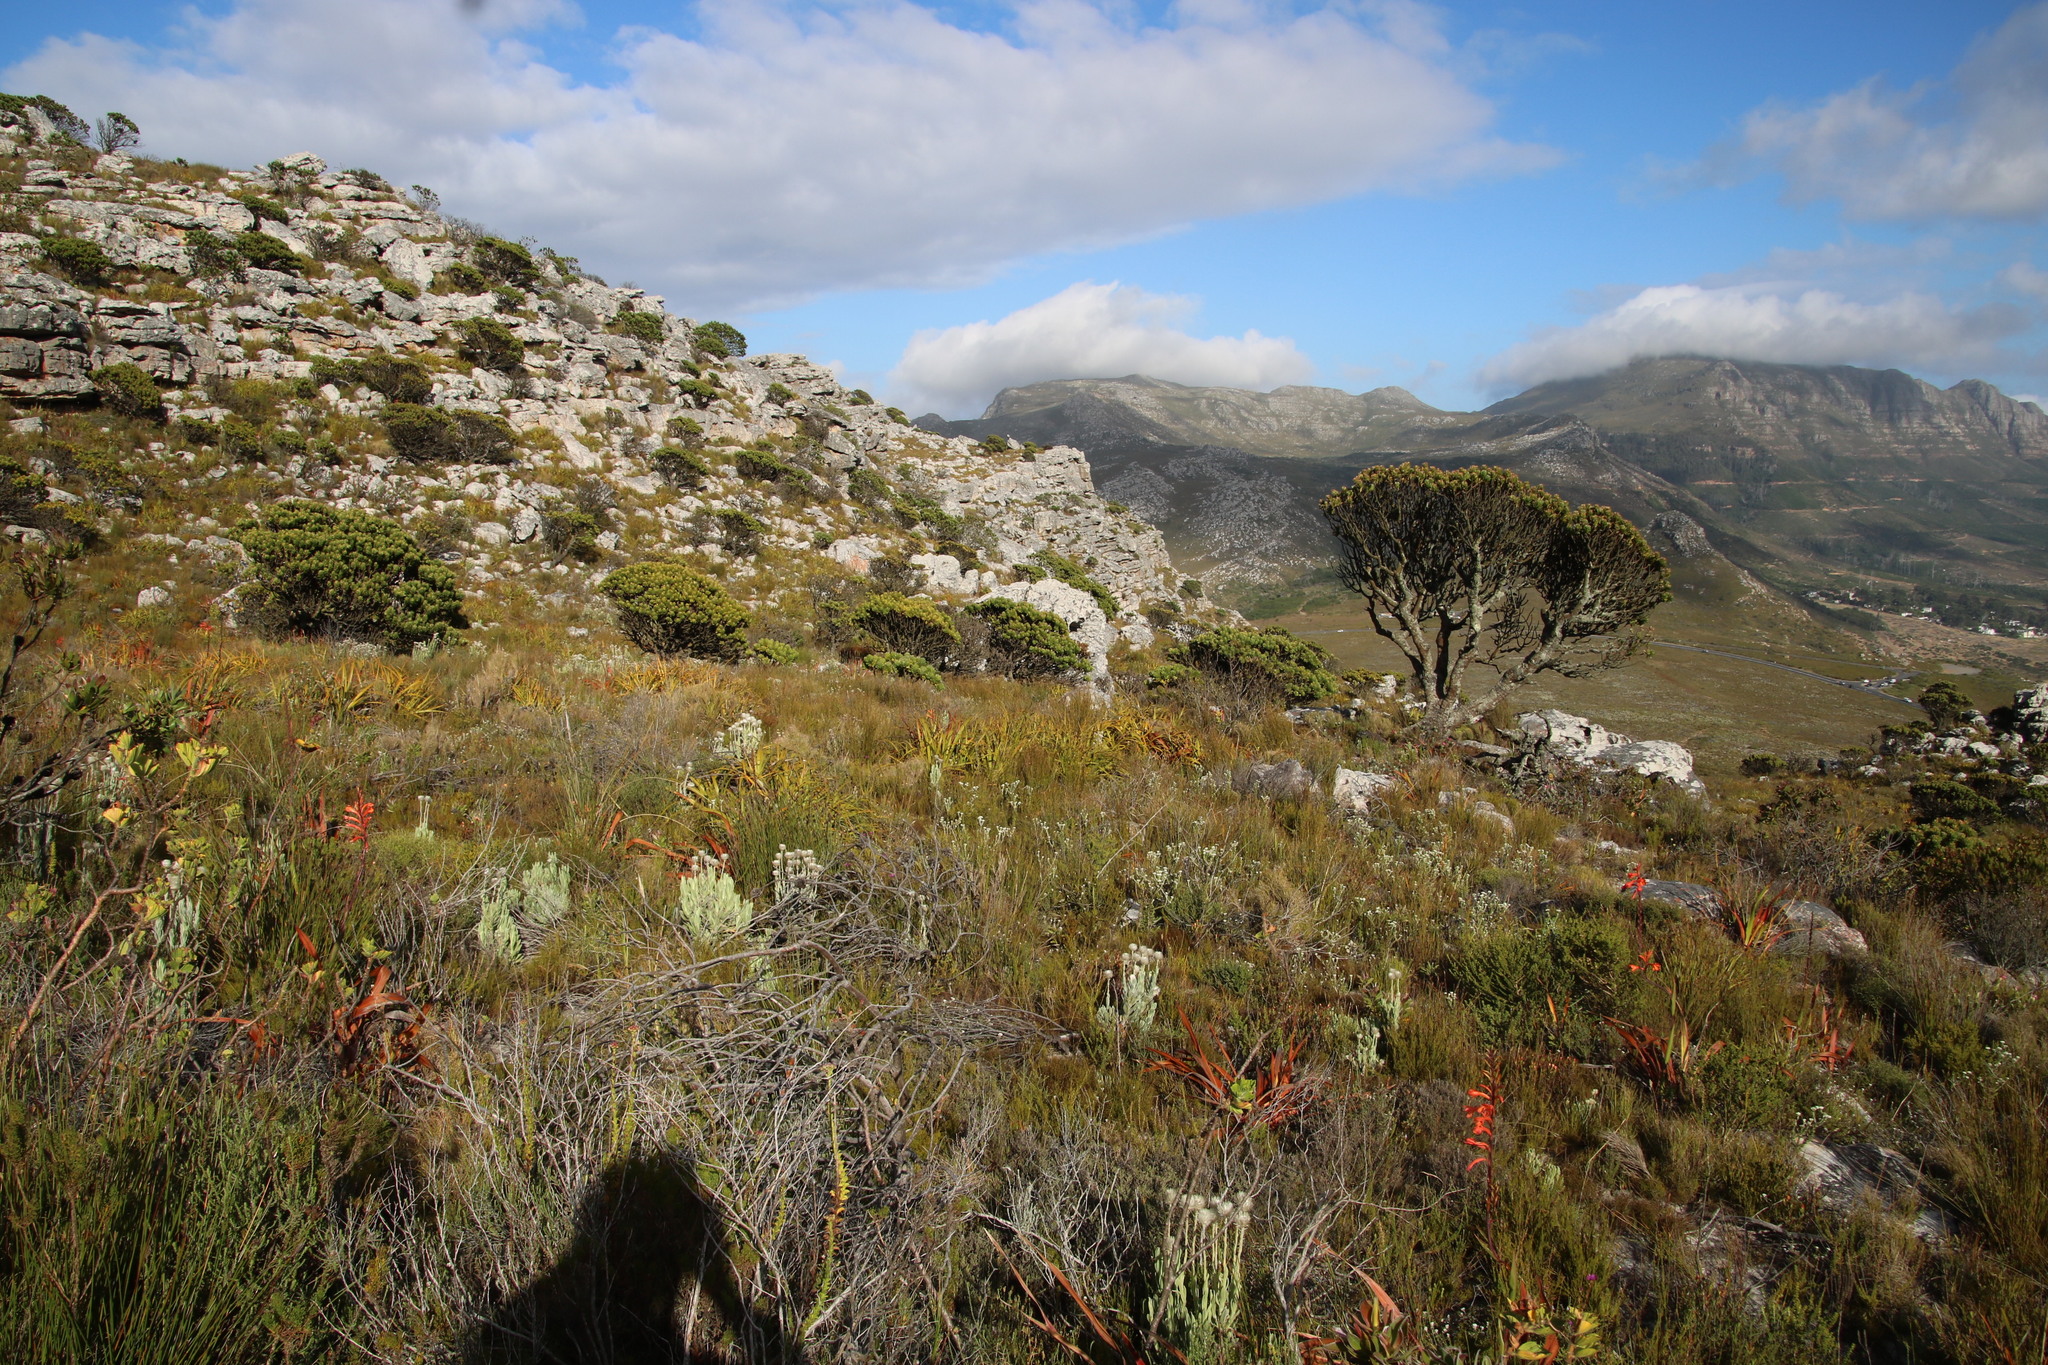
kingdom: Plantae
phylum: Tracheophyta
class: Magnoliopsida
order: Proteales
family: Proteaceae
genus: Mimetes
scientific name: Mimetes fimbriifolius
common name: Fringed bottlebrush
